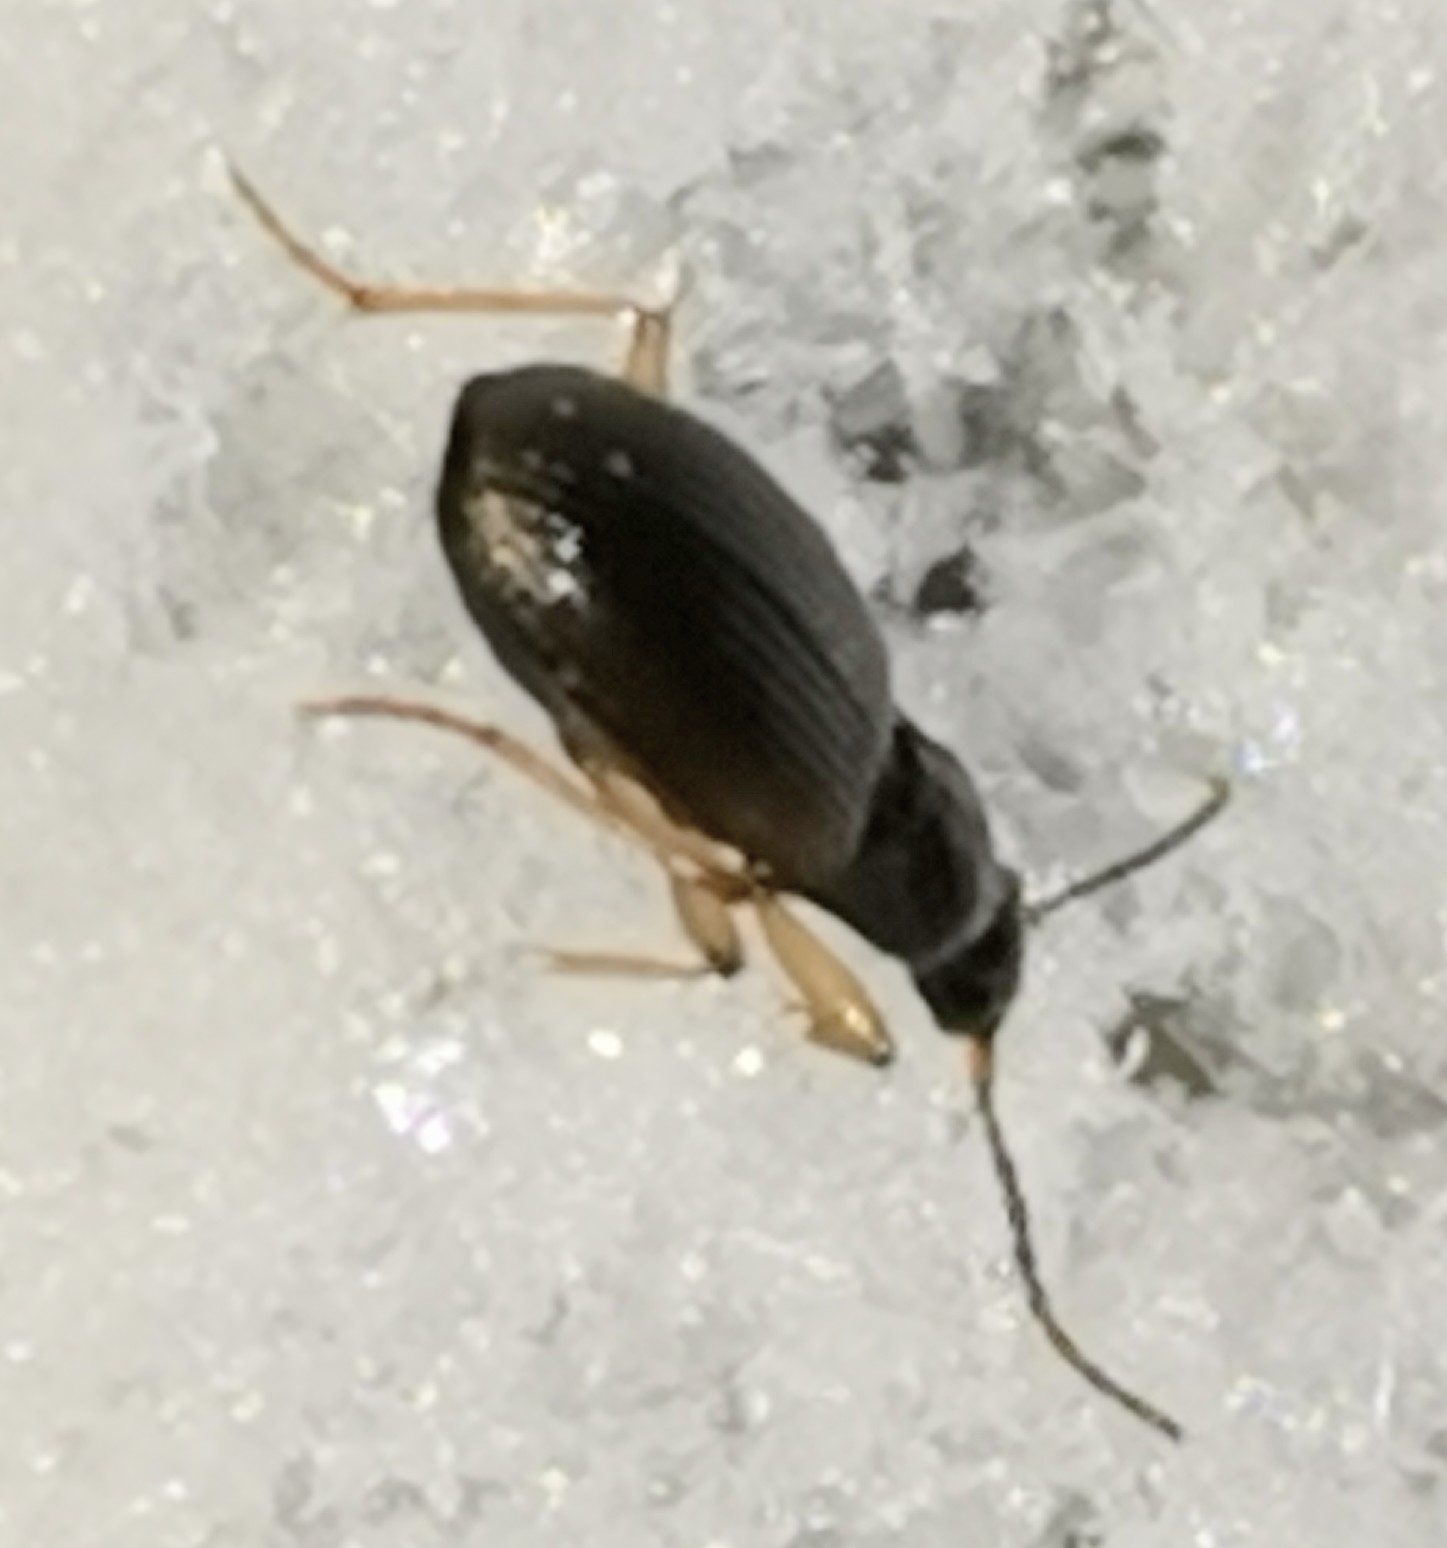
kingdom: Animalia
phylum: Arthropoda
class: Insecta
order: Coleoptera
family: Carabidae
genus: Oxypselaphus
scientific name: Oxypselaphus obscurus
